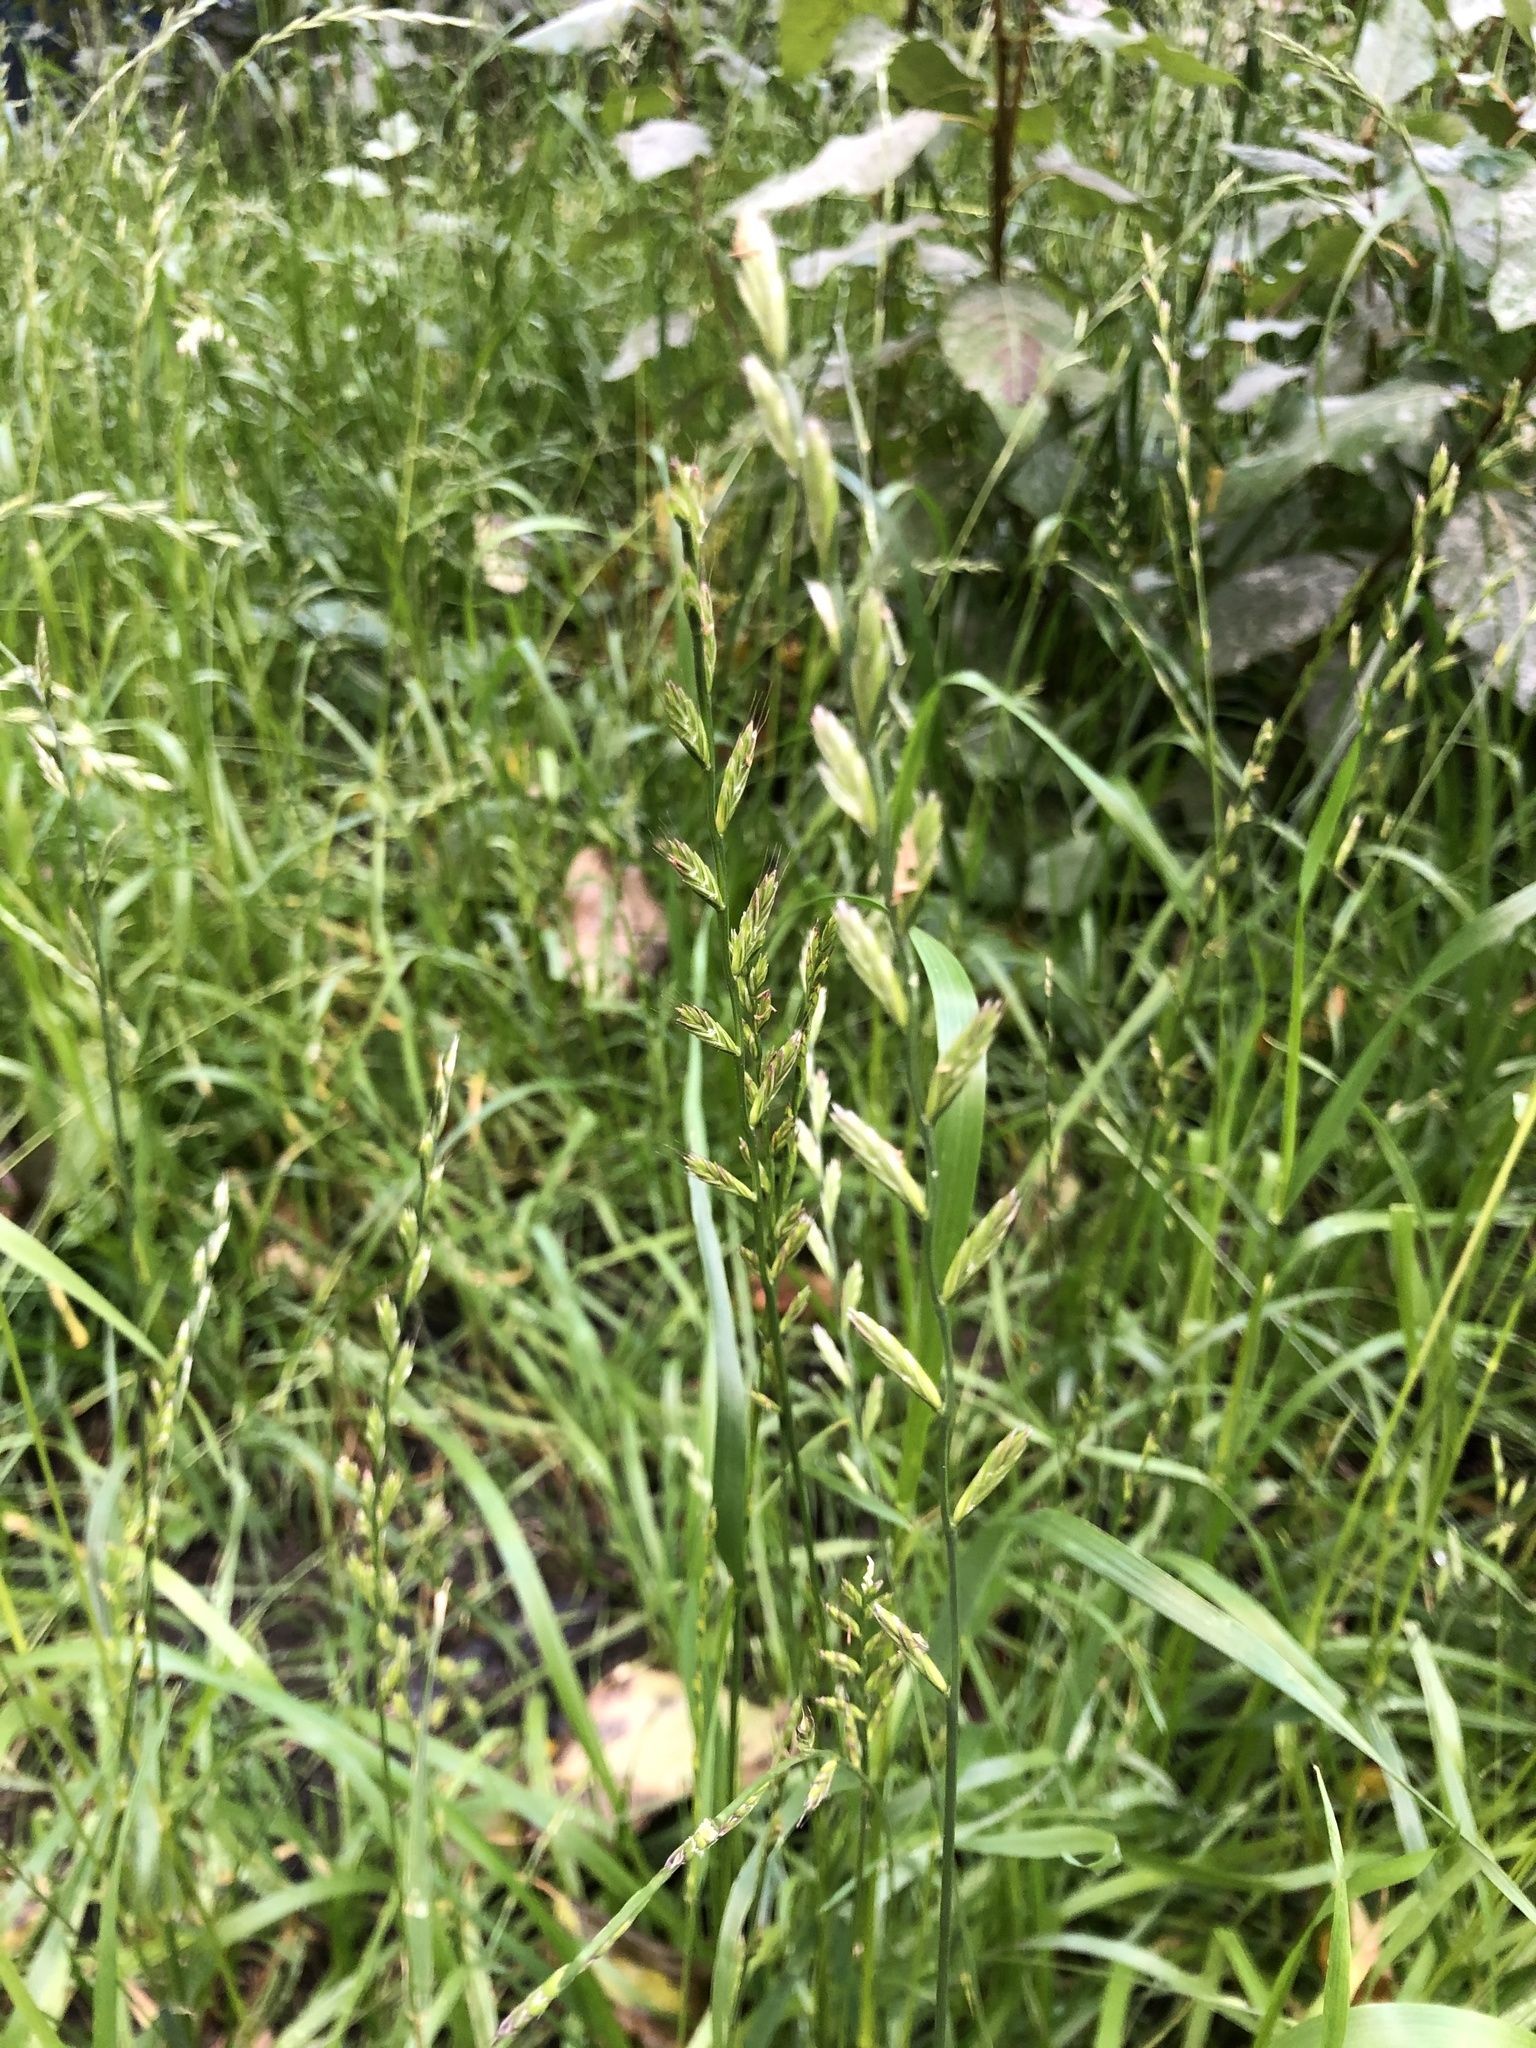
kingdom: Plantae
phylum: Tracheophyta
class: Liliopsida
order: Poales
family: Poaceae
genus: Lolium
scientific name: Lolium perenne
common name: Perennial ryegrass
